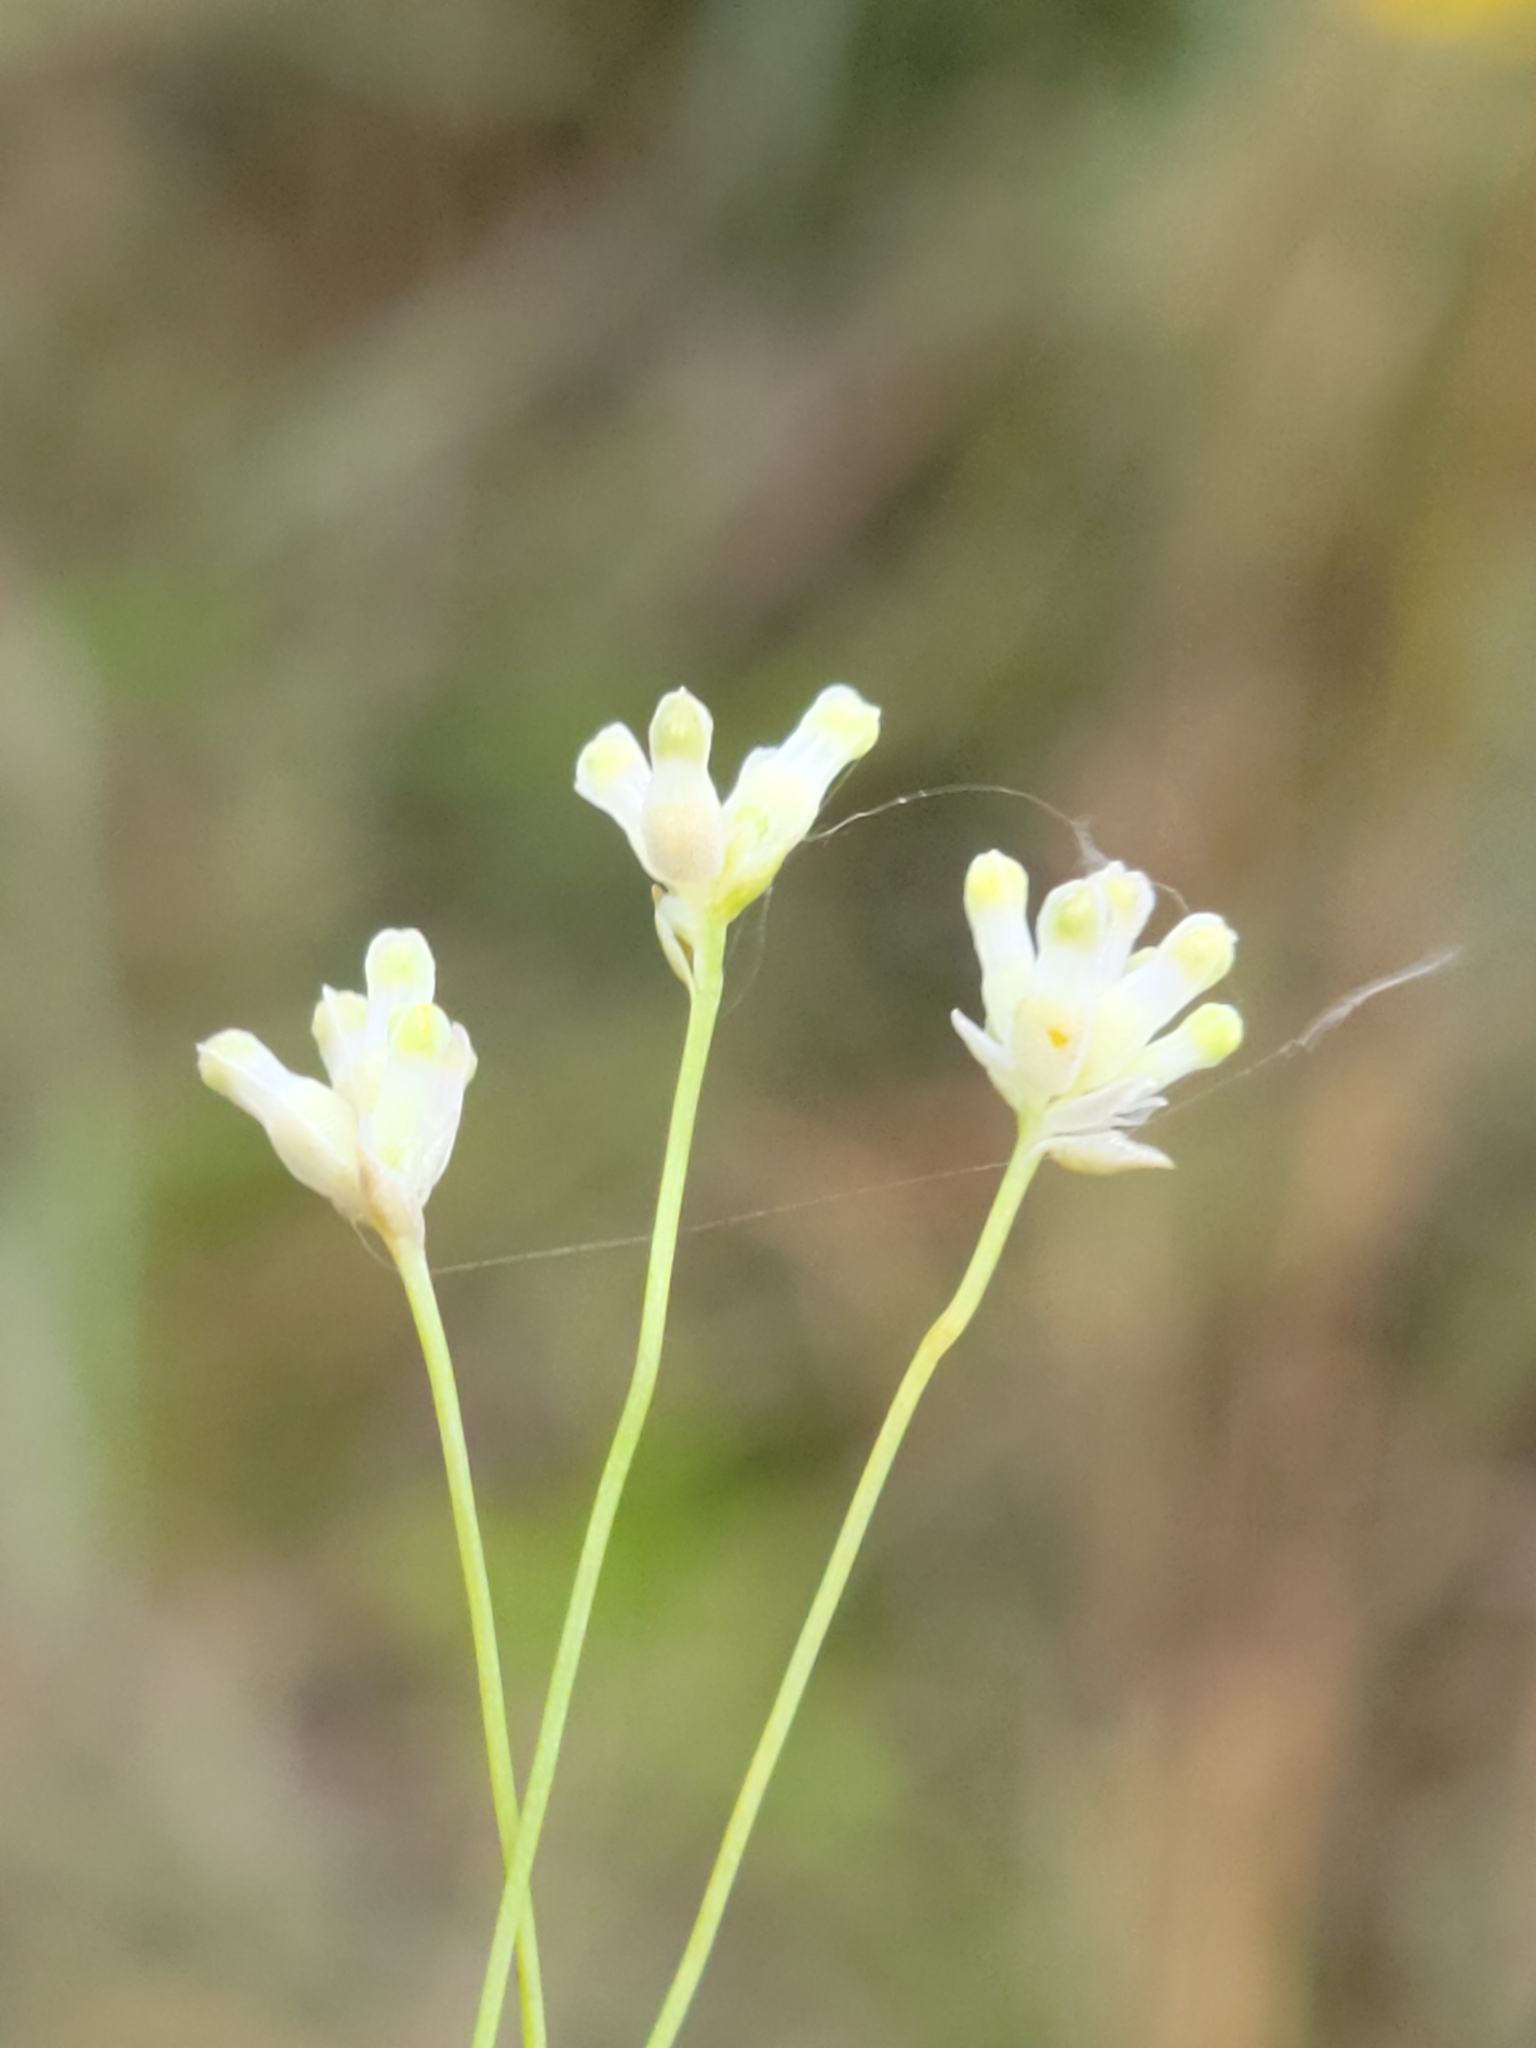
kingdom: Plantae
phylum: Tracheophyta
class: Liliopsida
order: Dioscoreales
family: Burmanniaceae
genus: Burmannia
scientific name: Burmannia capitata
